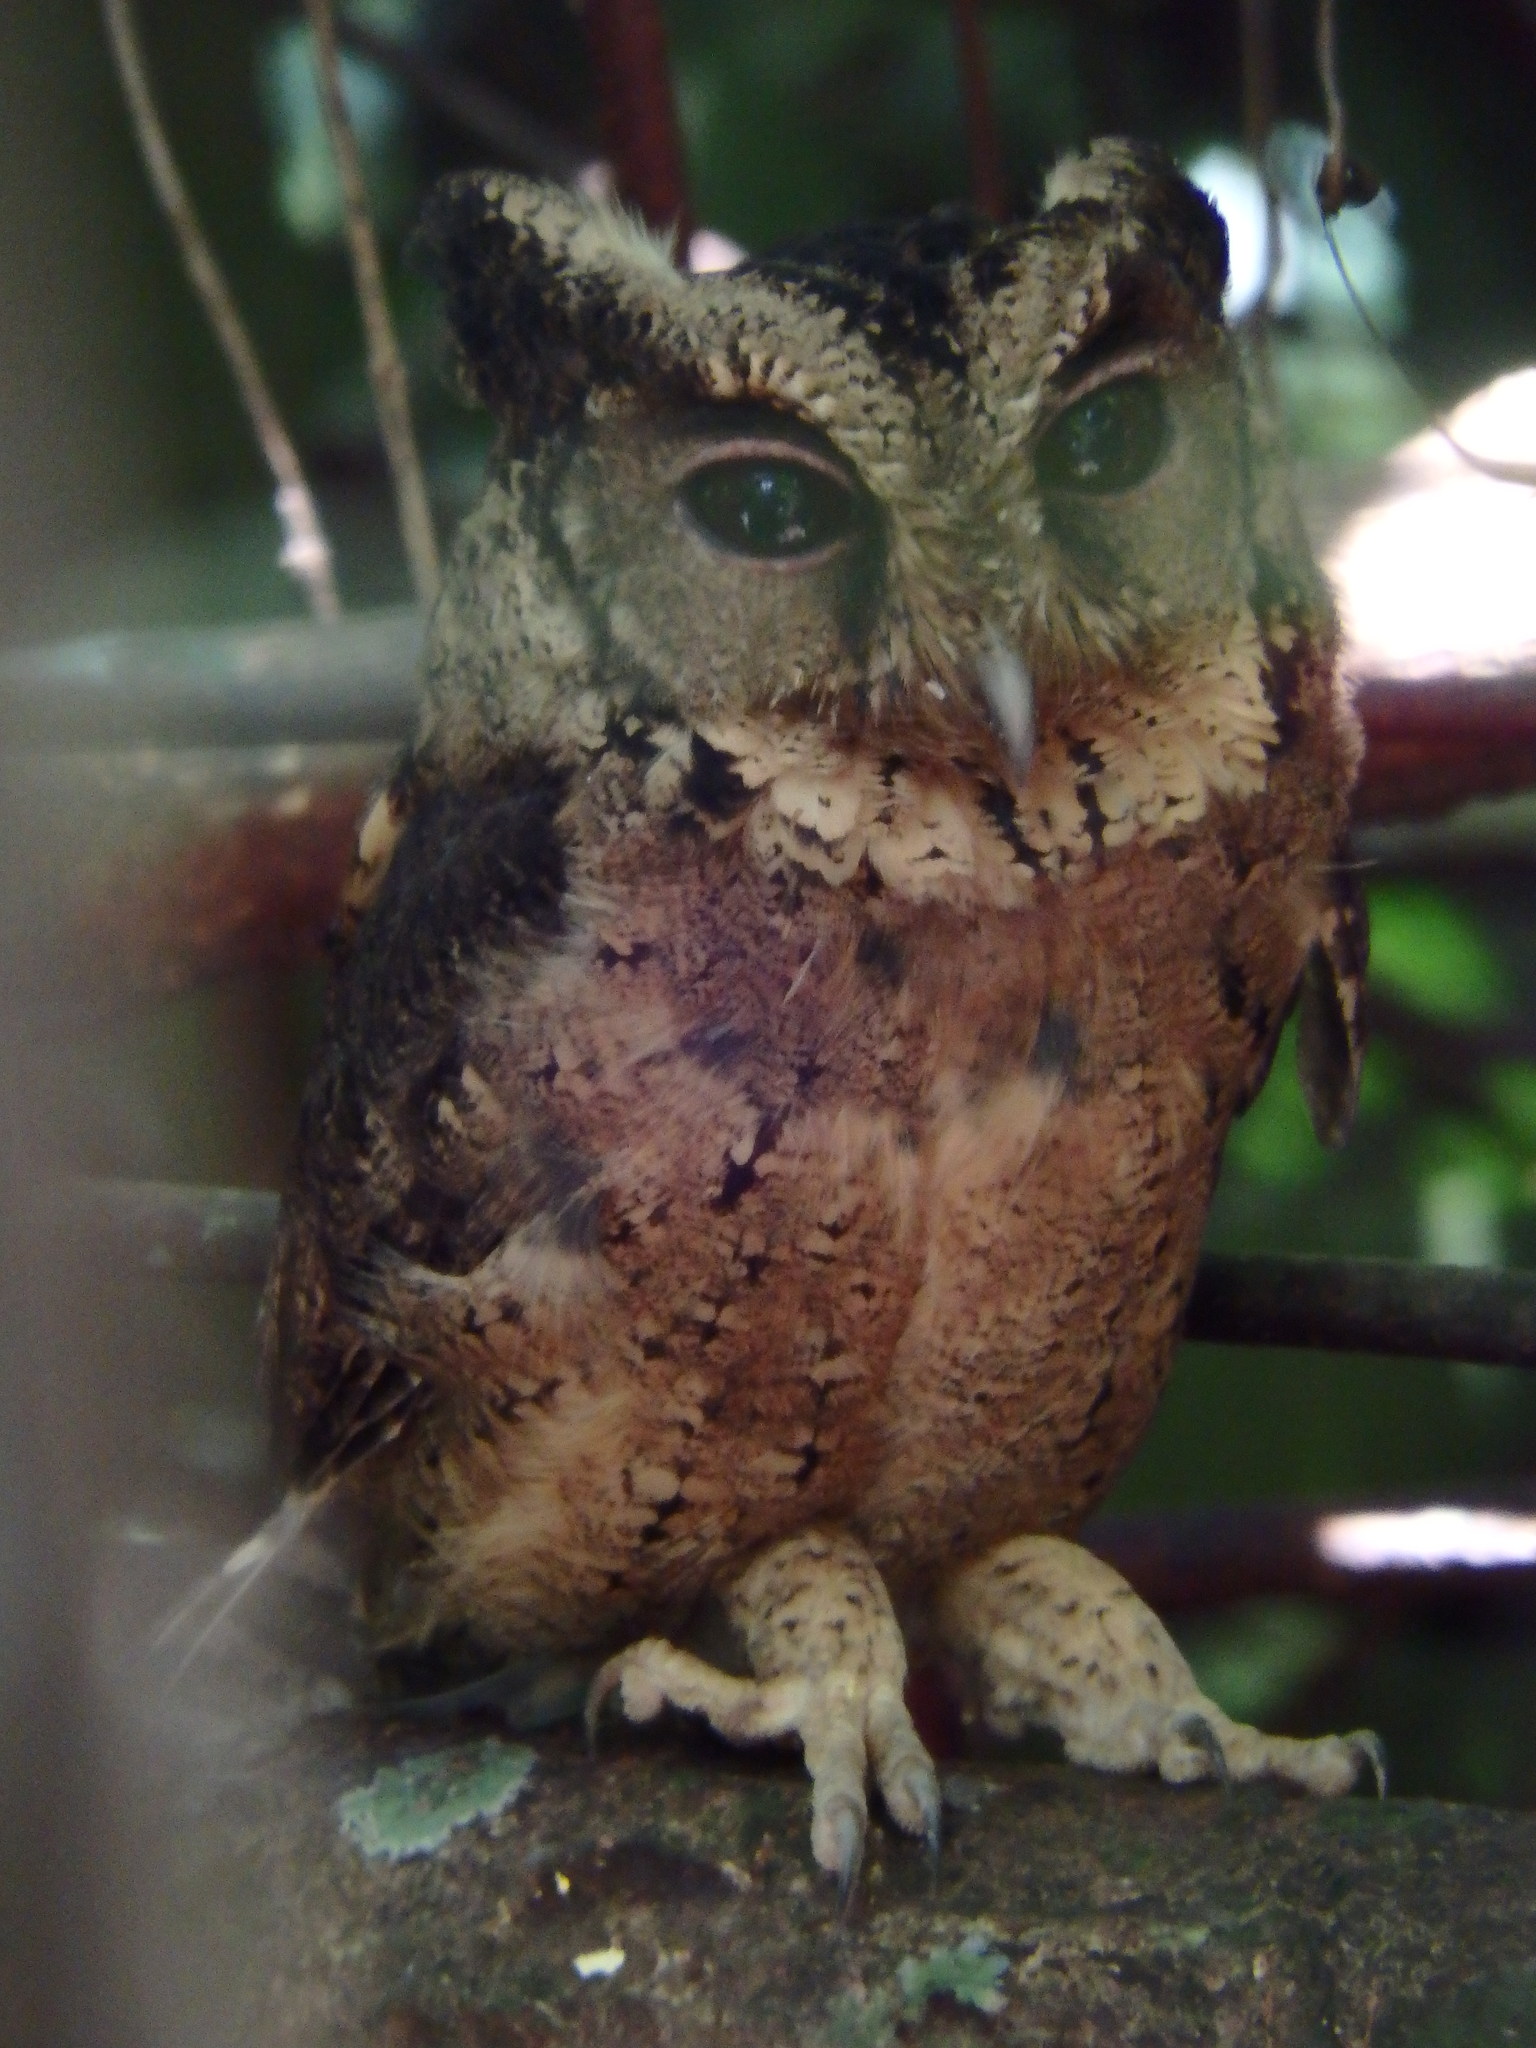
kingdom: Animalia
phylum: Chordata
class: Aves
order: Strigiformes
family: Strigidae
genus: Otus
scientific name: Otus lempiji
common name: Sunda scops-owl
